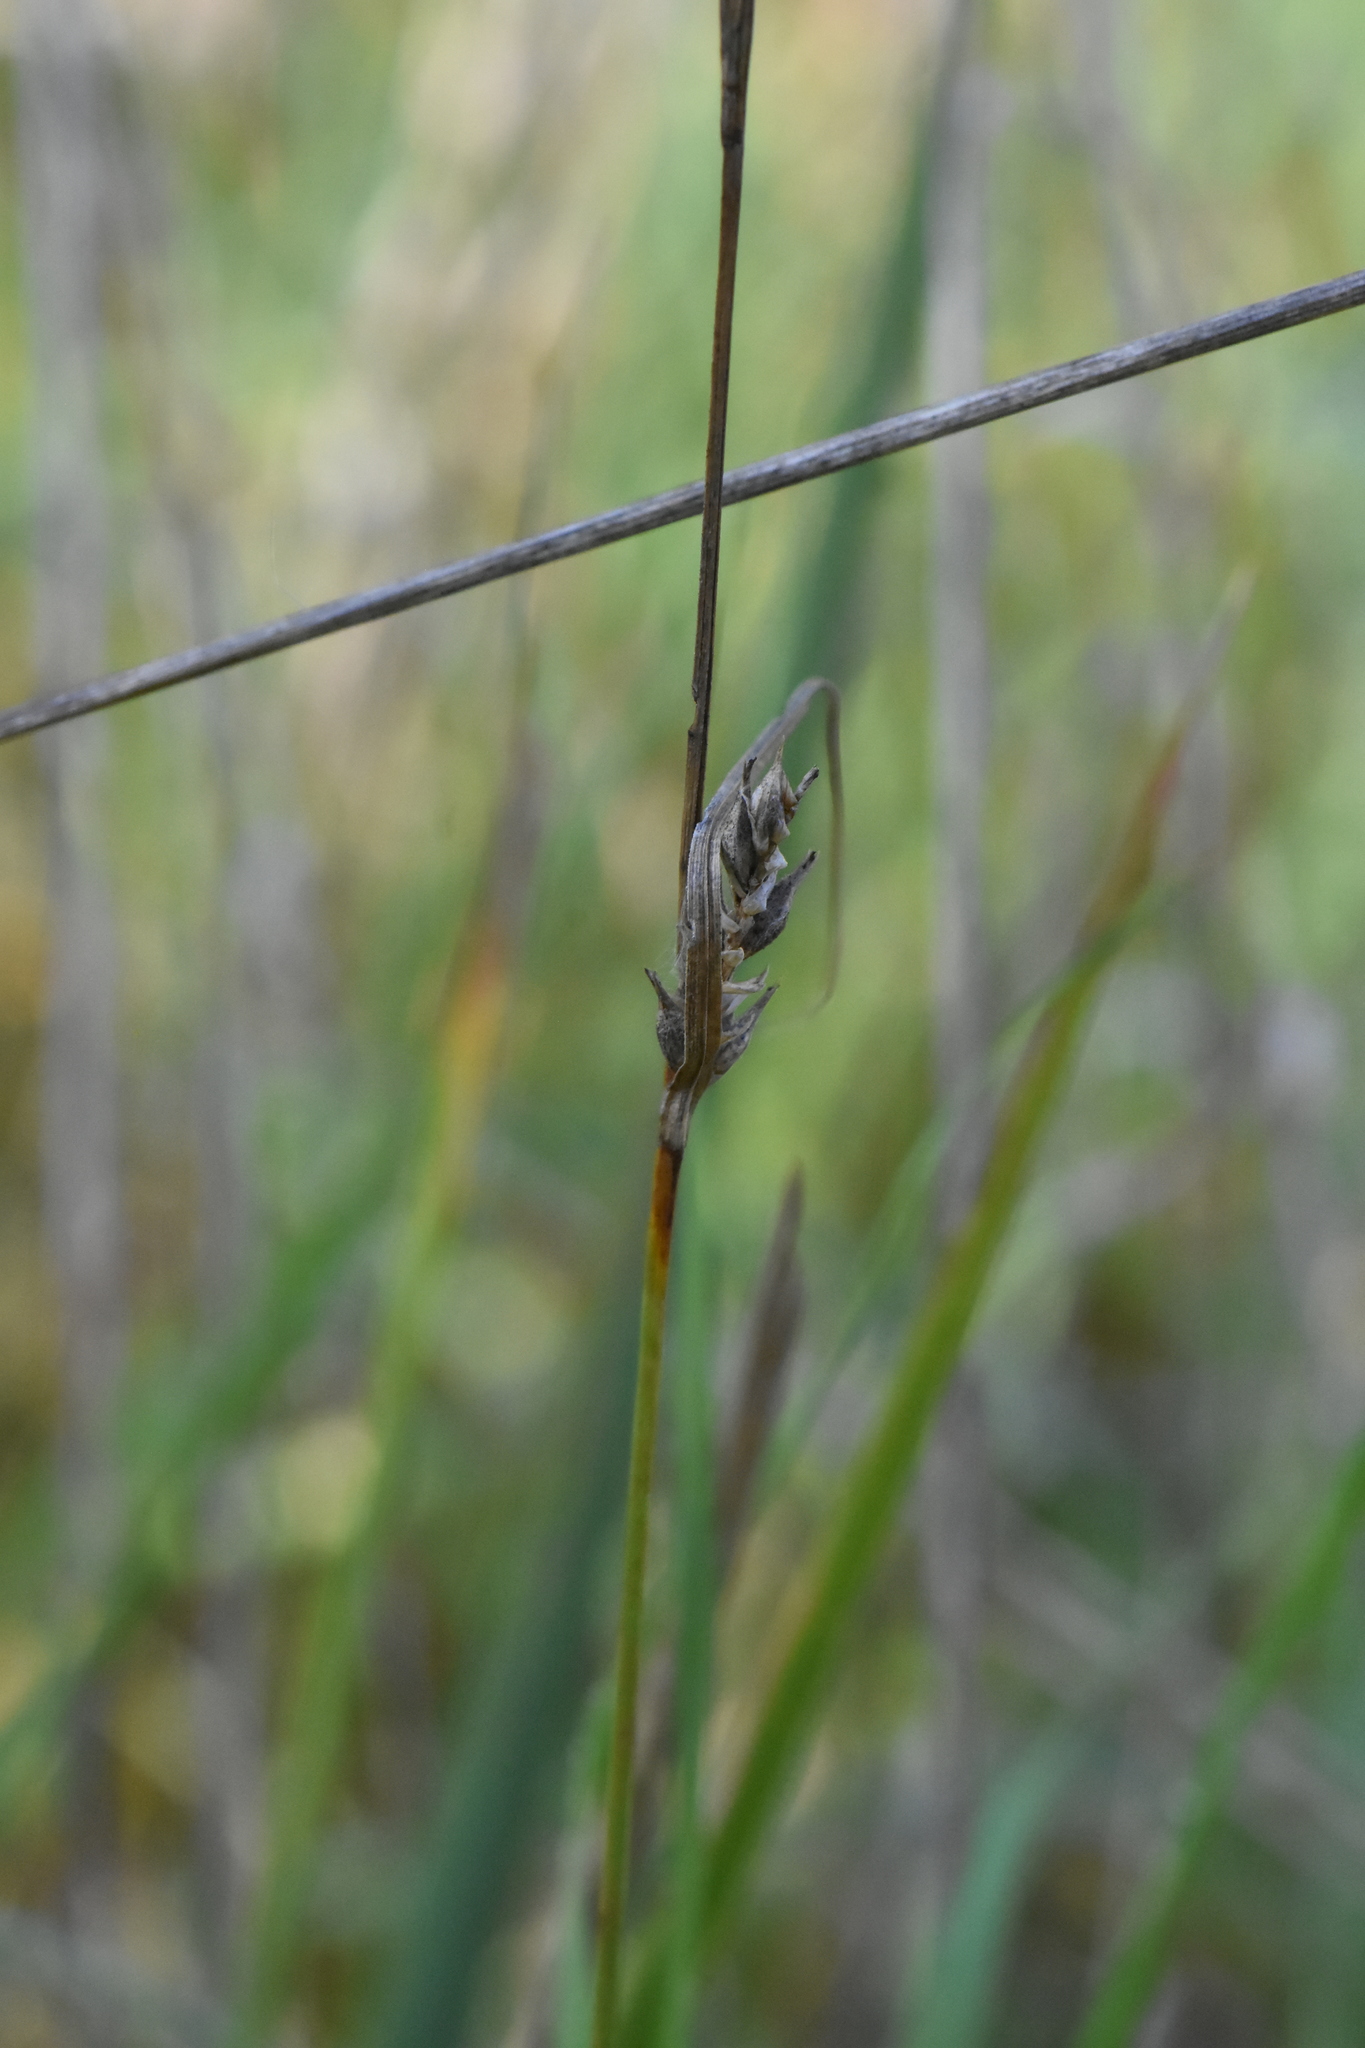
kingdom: Plantae
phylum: Tracheophyta
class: Liliopsida
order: Poales
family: Cyperaceae
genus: Carex
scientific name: Carex hirta
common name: Hairy sedge
